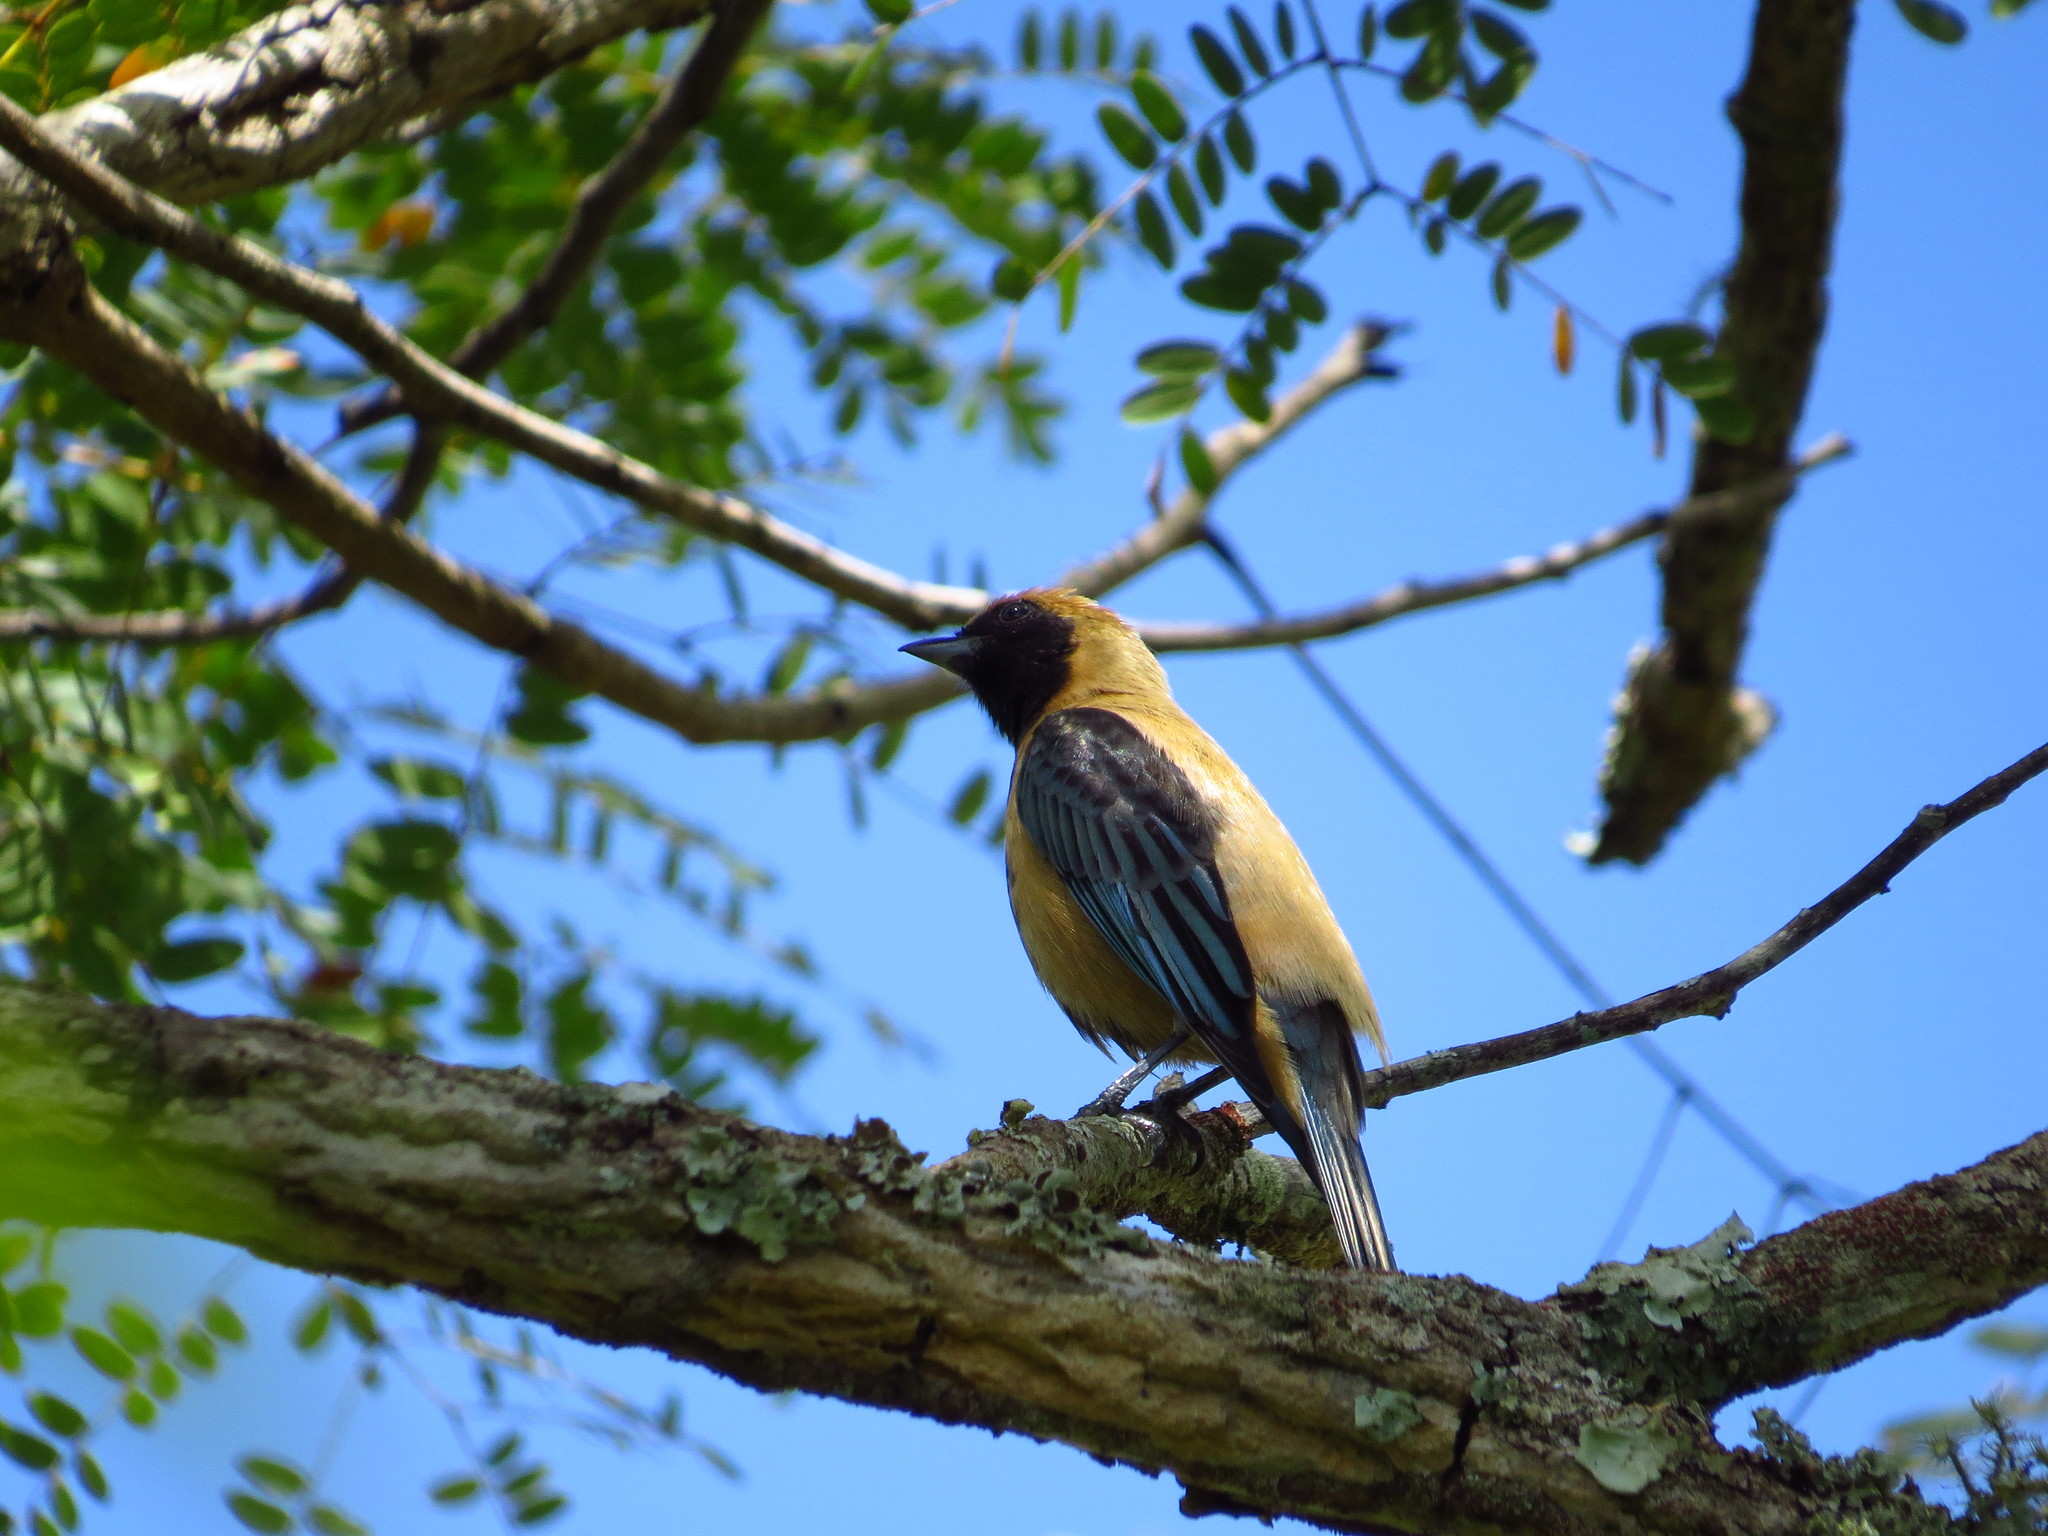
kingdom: Animalia
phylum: Chordata
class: Aves
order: Passeriformes
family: Thraupidae
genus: Stilpnia
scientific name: Stilpnia cayana
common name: Burnished-buff tanager
